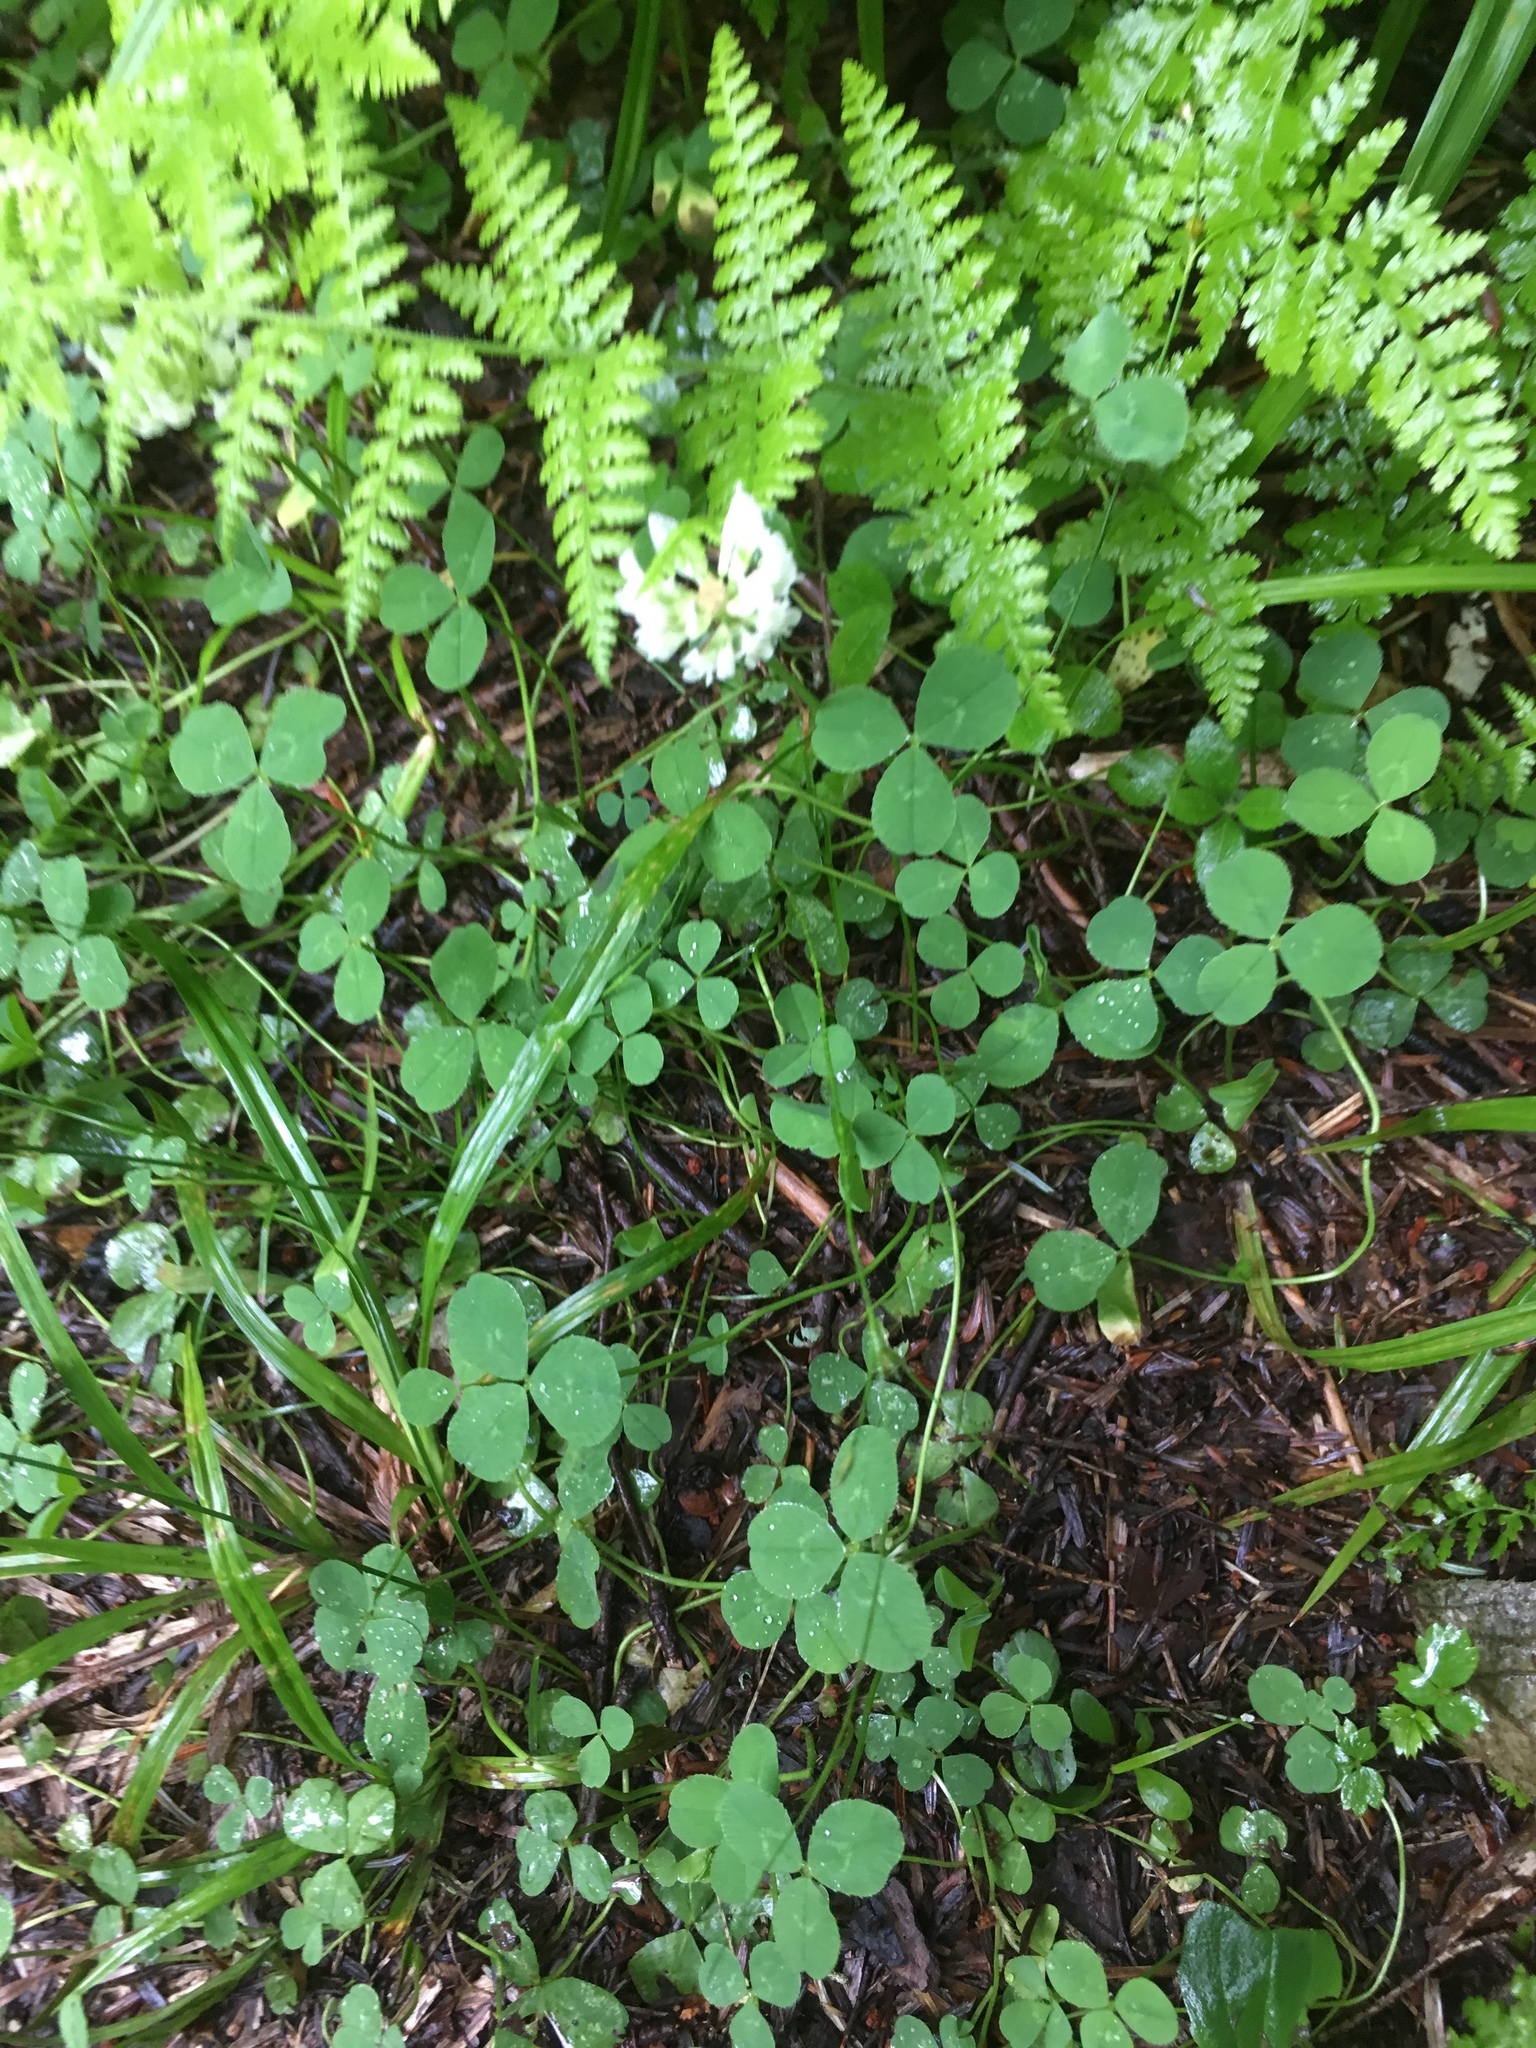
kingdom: Plantae
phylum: Tracheophyta
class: Magnoliopsida
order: Fabales
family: Fabaceae
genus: Trifolium
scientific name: Trifolium repens
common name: White clover
